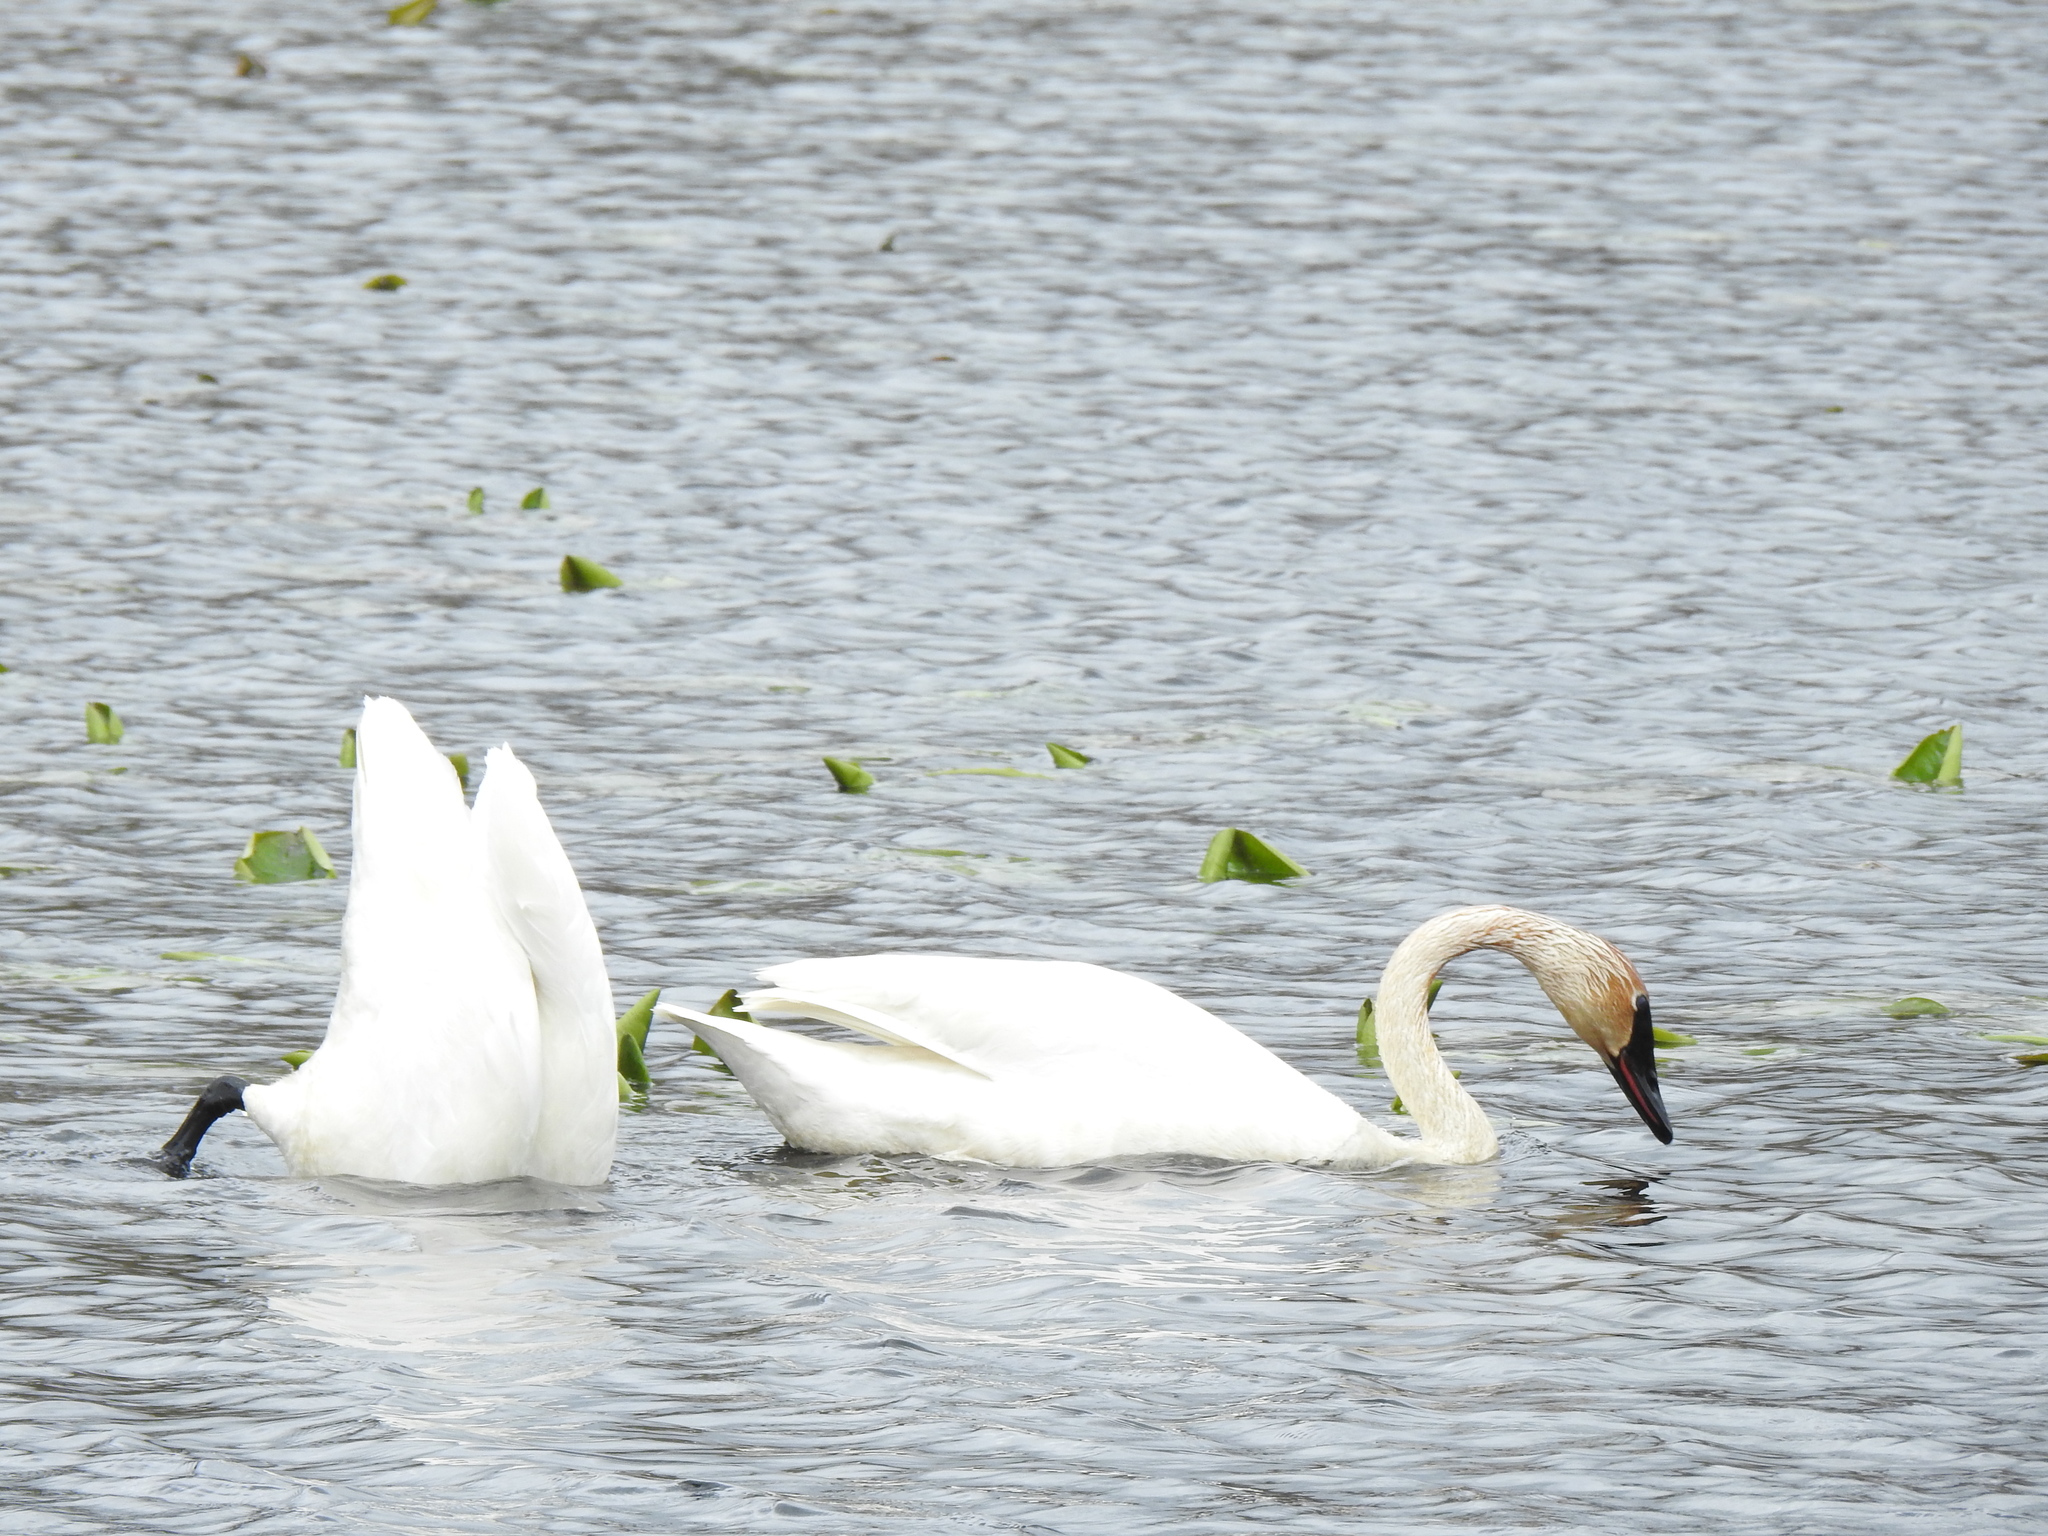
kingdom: Animalia
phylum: Chordata
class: Aves
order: Anseriformes
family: Anatidae
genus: Cygnus
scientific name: Cygnus buccinator
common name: Trumpeter swan
